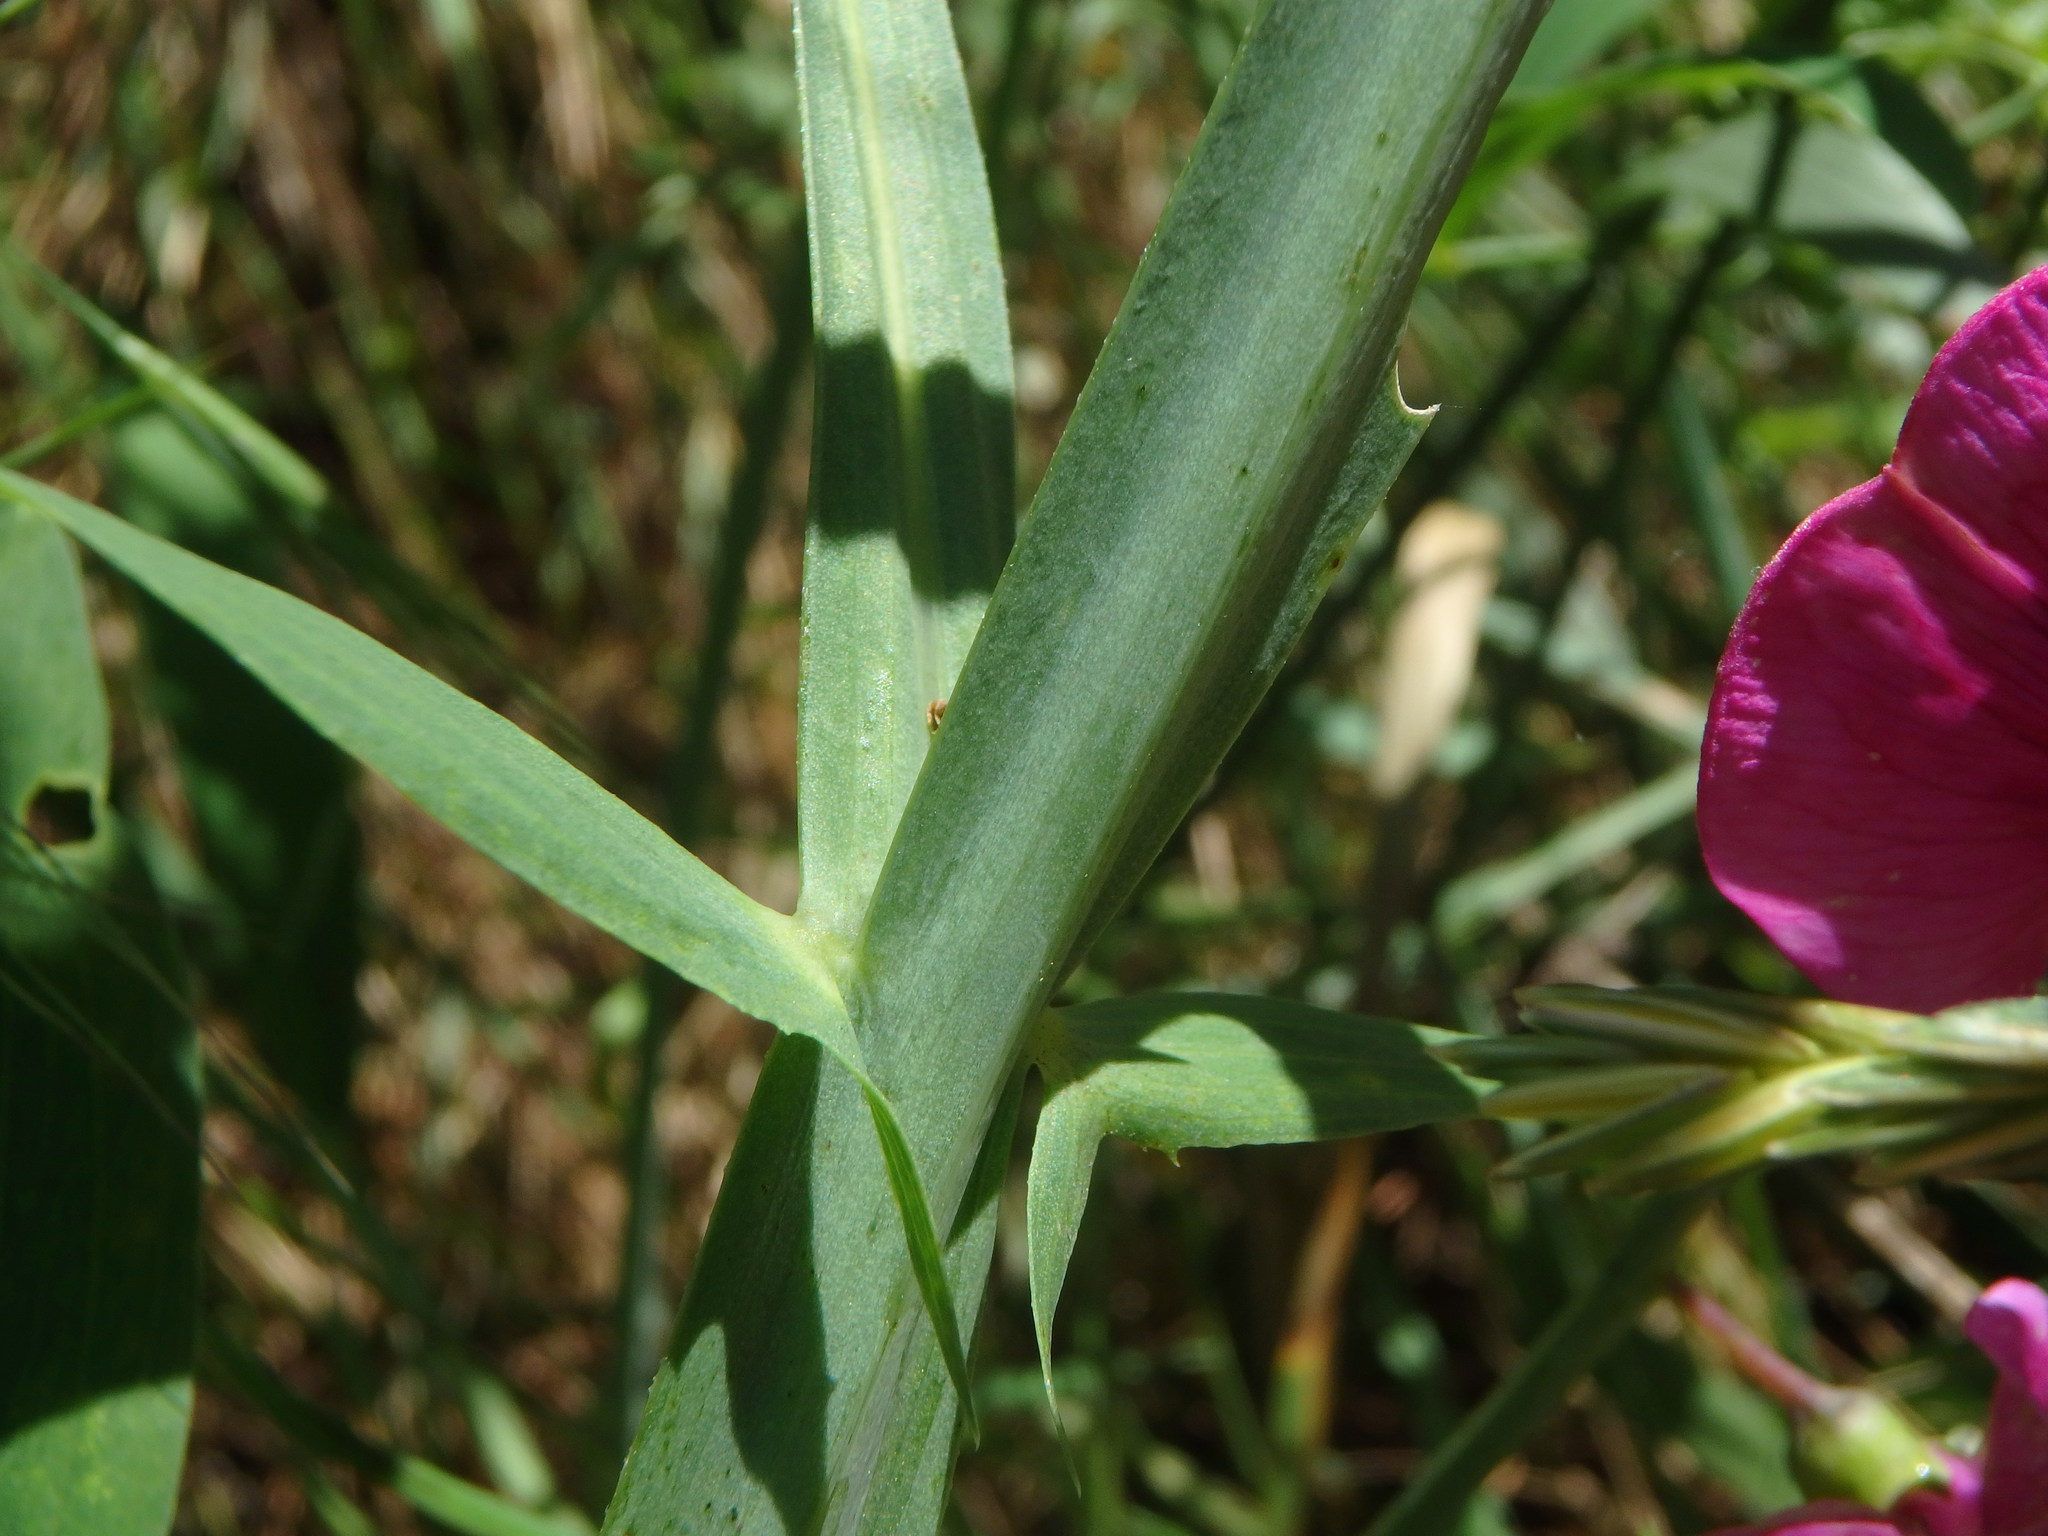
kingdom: Plantae
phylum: Tracheophyta
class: Magnoliopsida
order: Fabales
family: Fabaceae
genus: Lathyrus
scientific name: Lathyrus latifolius
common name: Perennial pea
